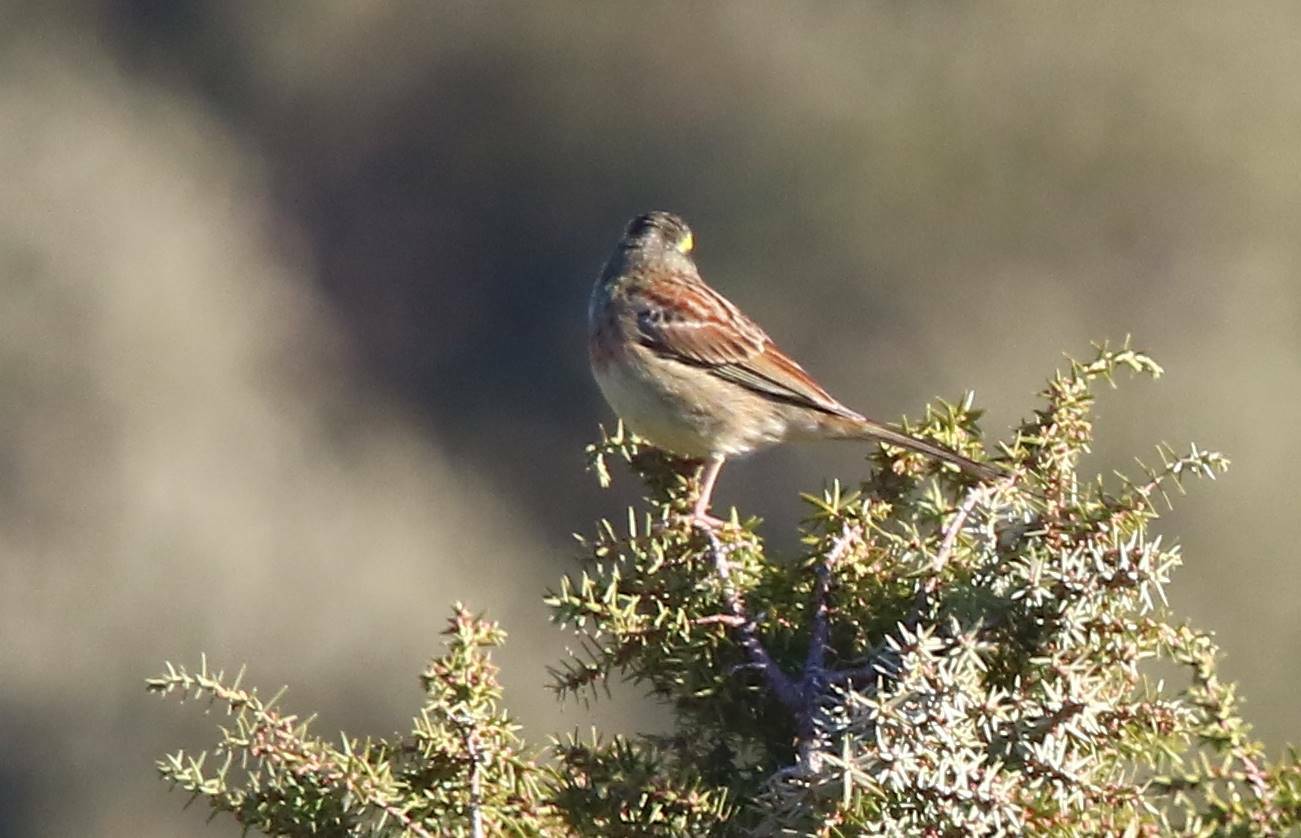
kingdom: Animalia
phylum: Chordata
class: Aves
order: Passeriformes
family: Emberizidae
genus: Emberiza
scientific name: Emberiza cirlus
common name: Cirl bunting
